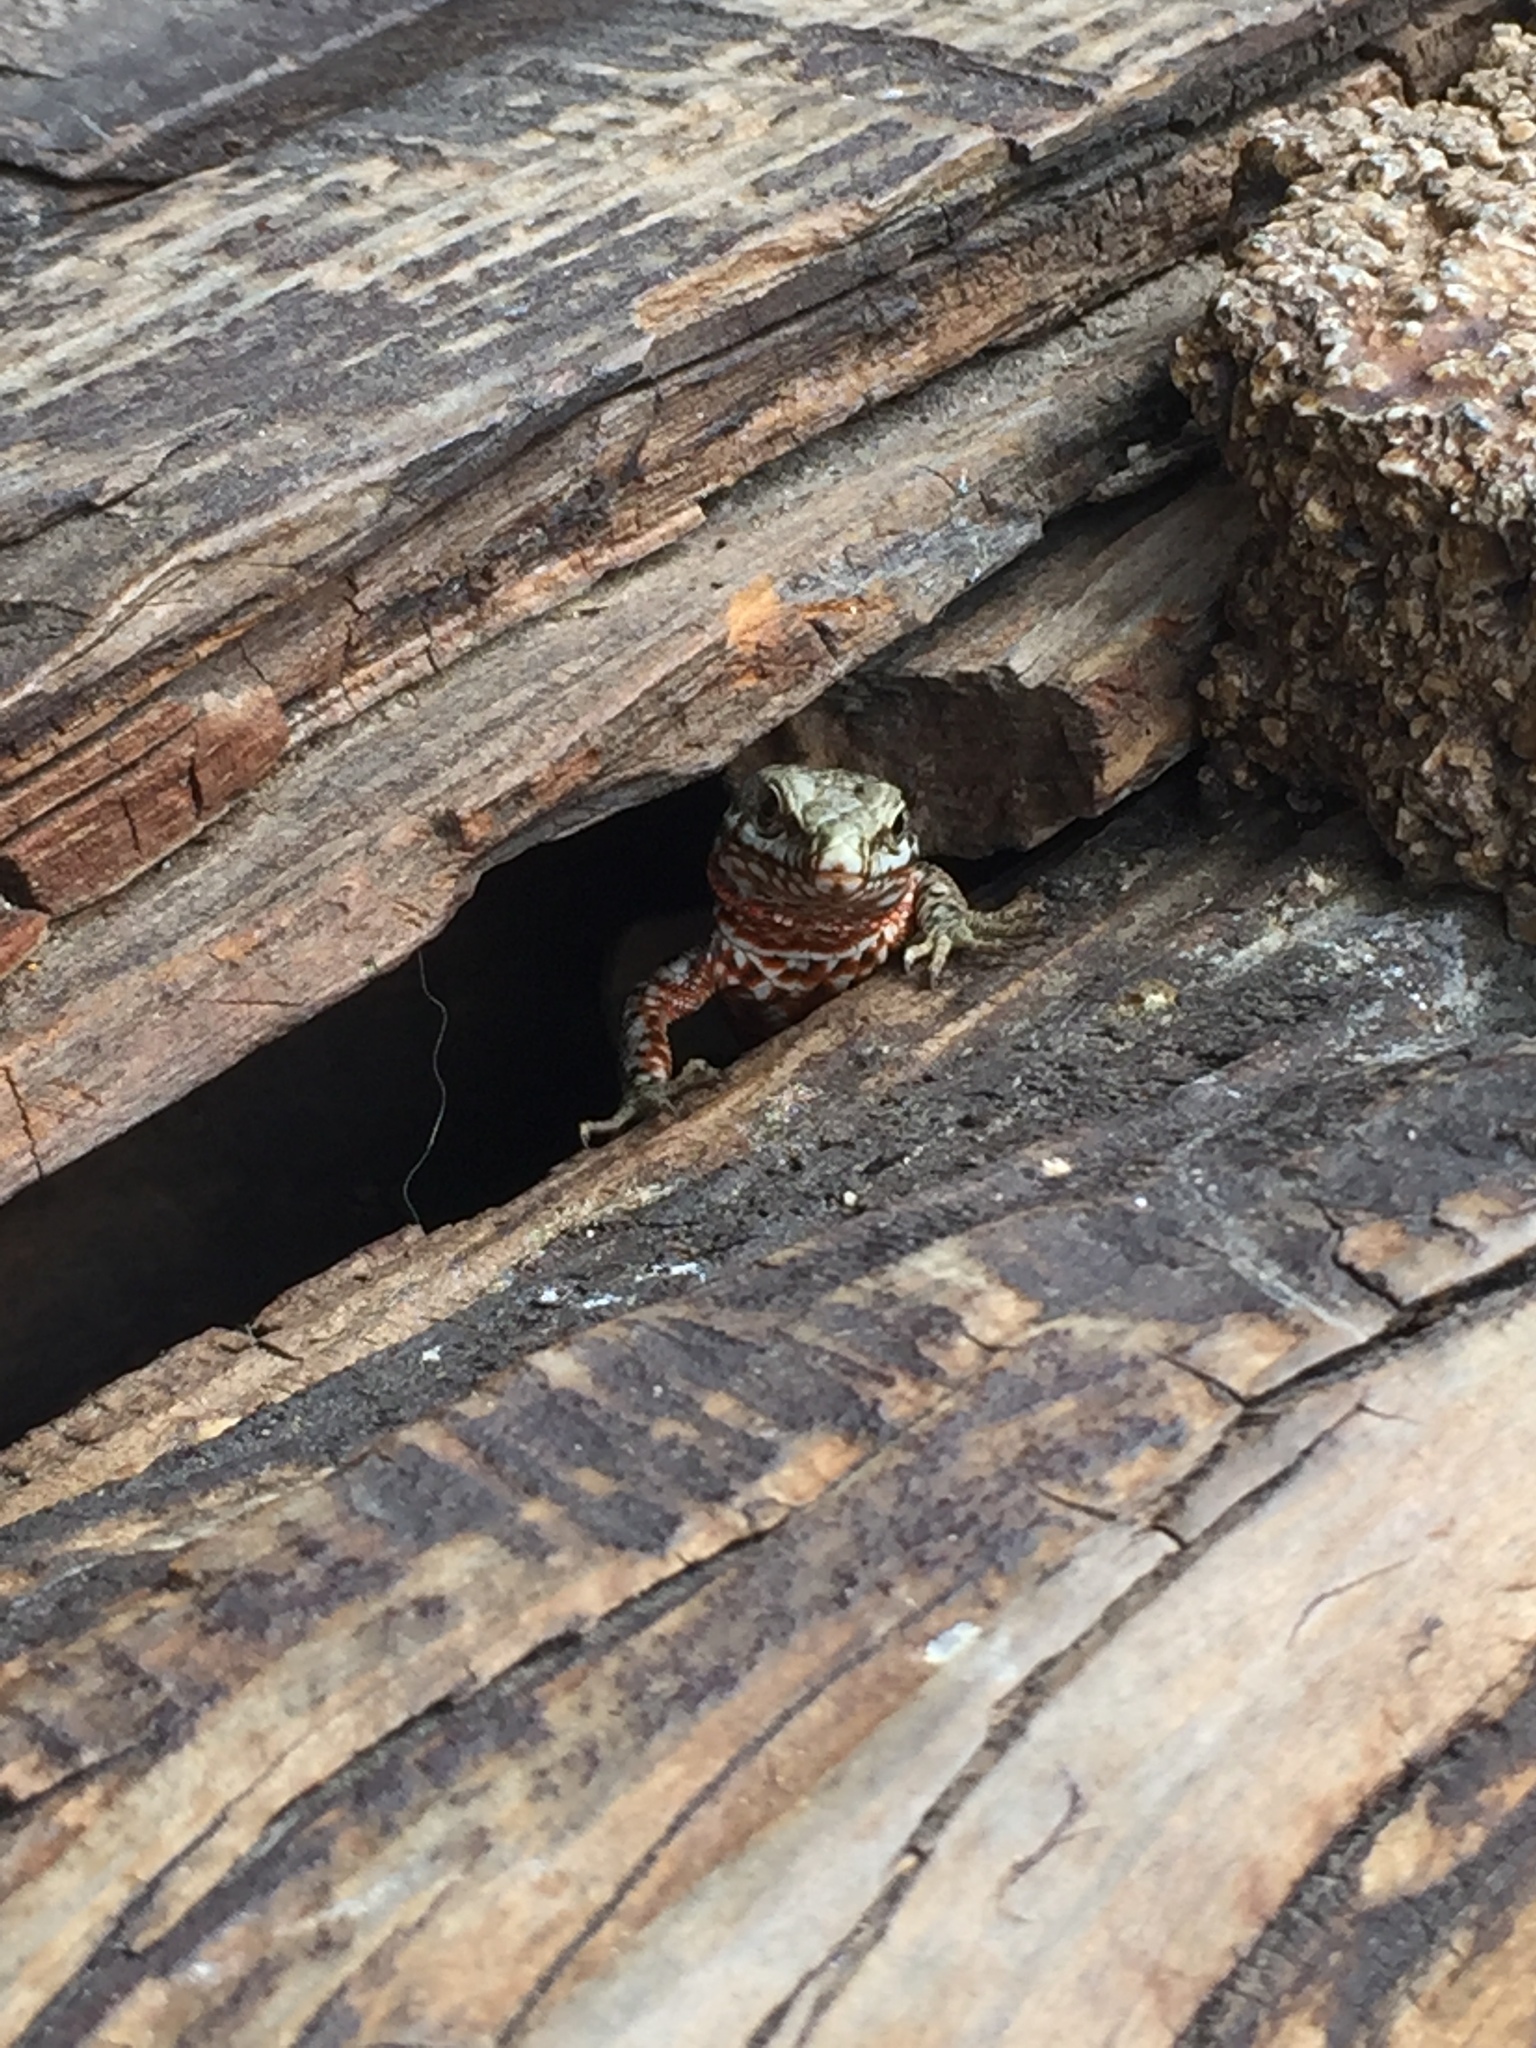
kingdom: Animalia
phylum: Chordata
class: Squamata
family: Lacertidae
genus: Podarcis
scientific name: Podarcis muralis
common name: Common wall lizard
